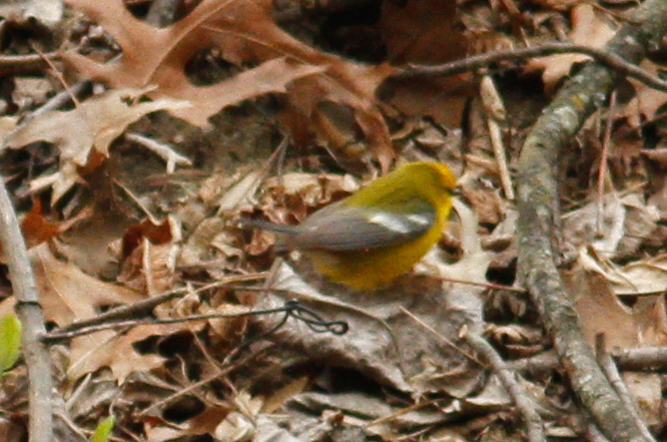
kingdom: Animalia
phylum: Chordata
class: Aves
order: Passeriformes
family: Parulidae
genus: Vermivora
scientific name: Vermivora cyanoptera
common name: Blue-winged warbler
